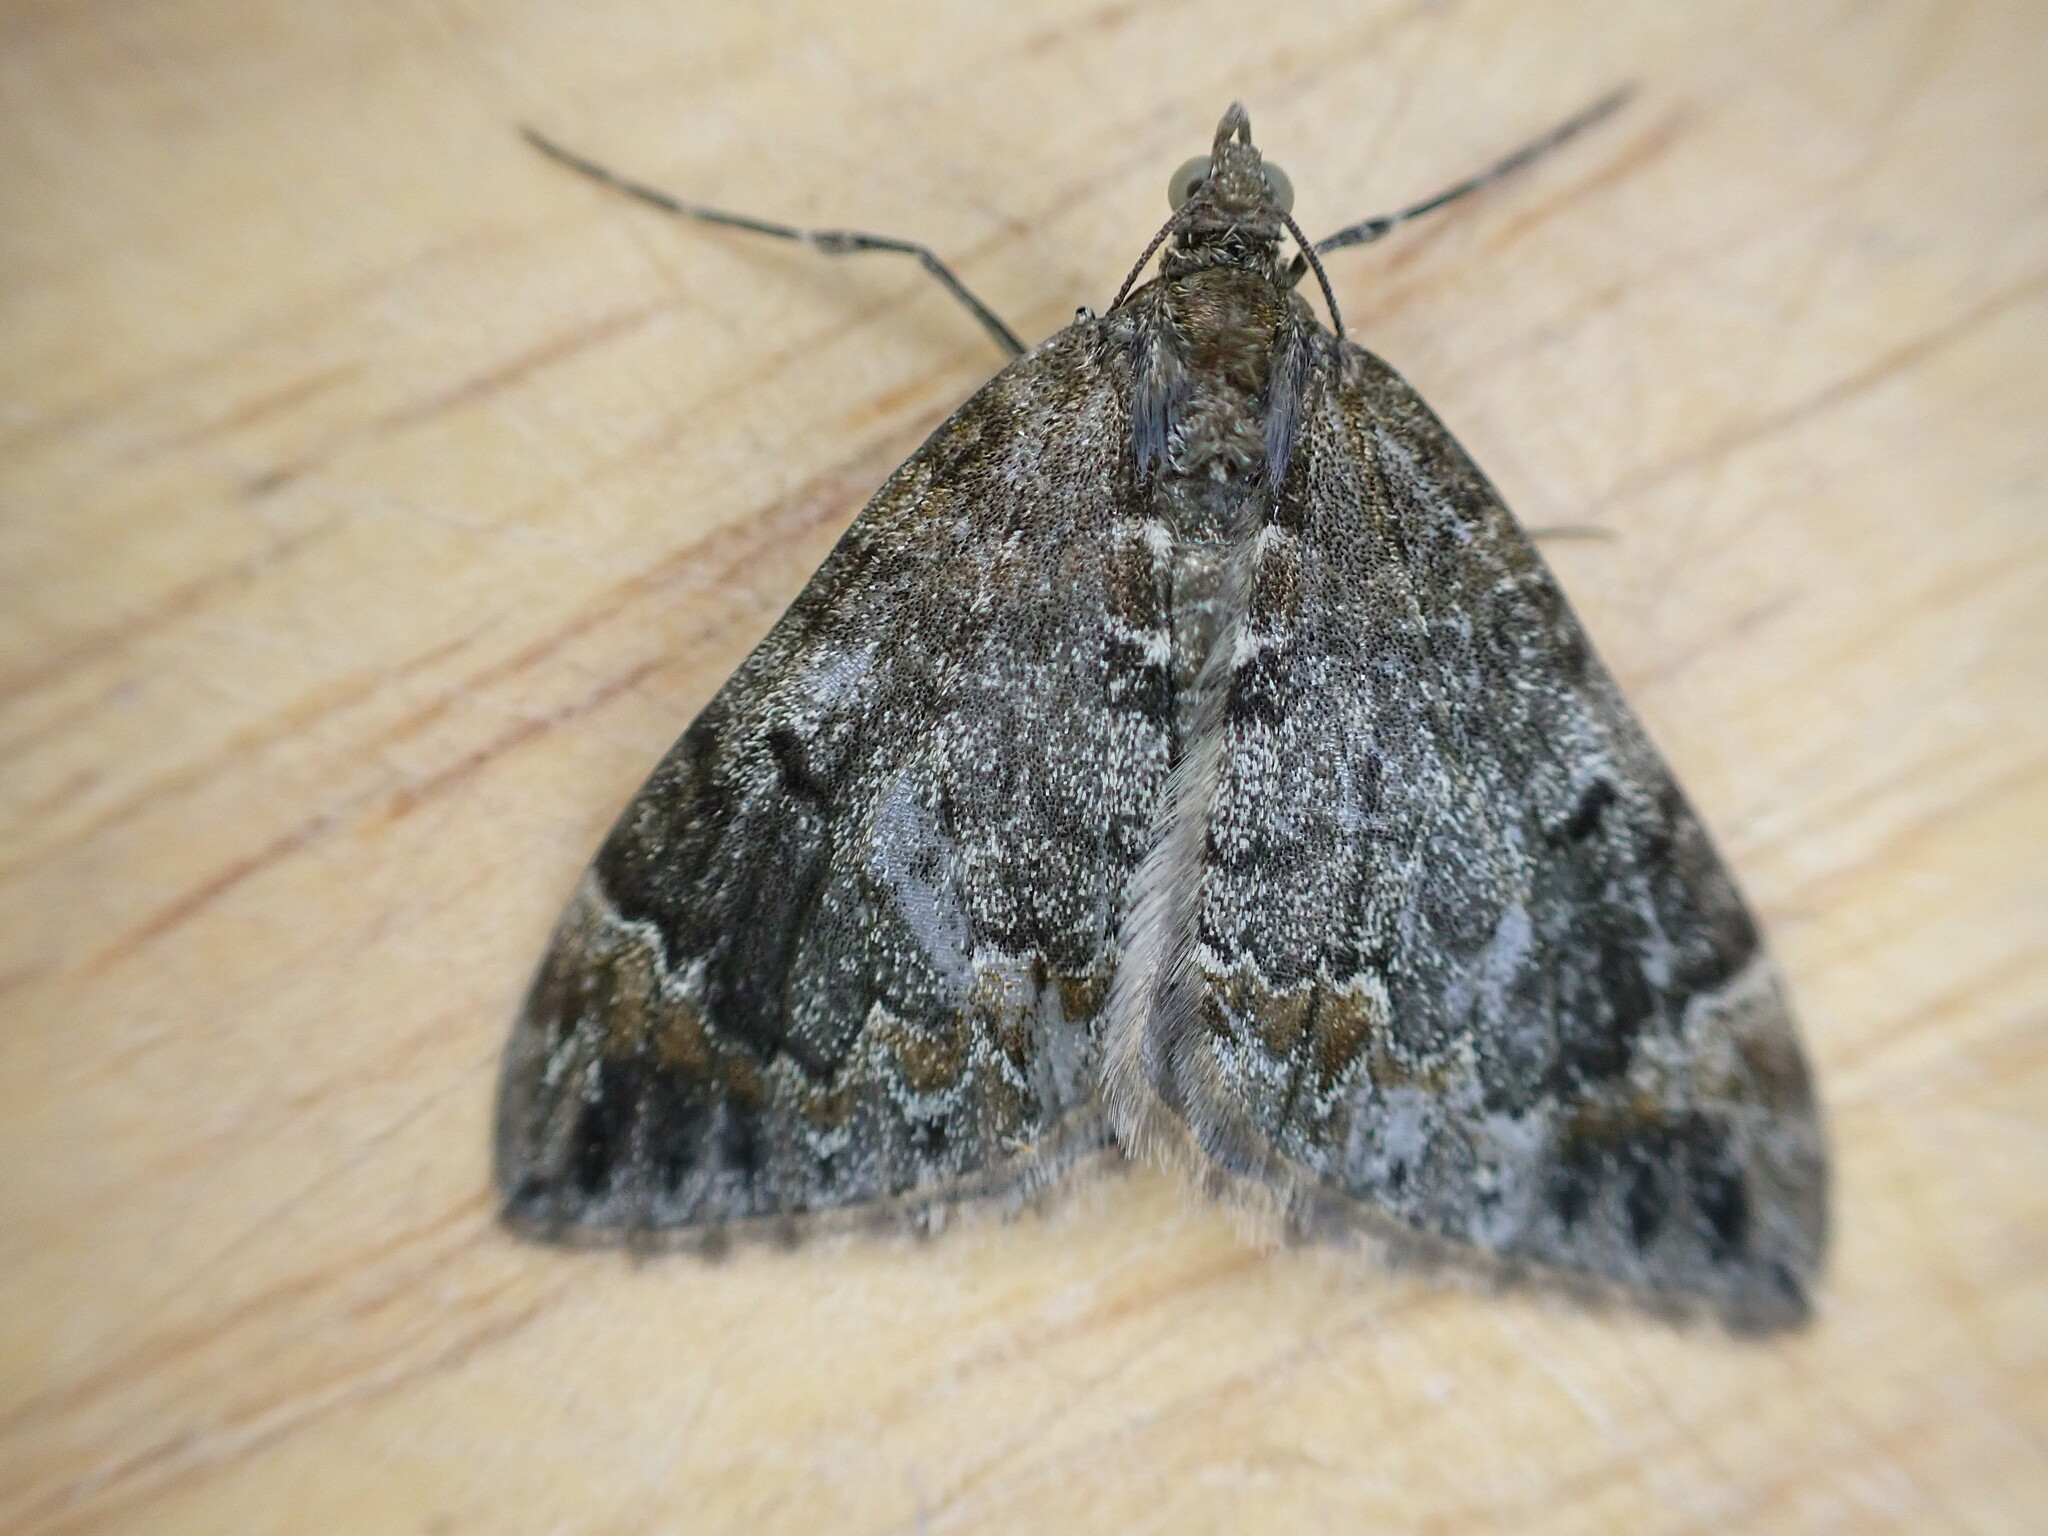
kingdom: Animalia
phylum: Arthropoda
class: Insecta
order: Lepidoptera
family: Geometridae
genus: Dysstroma
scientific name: Dysstroma truncata
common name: Common marbled carpet
